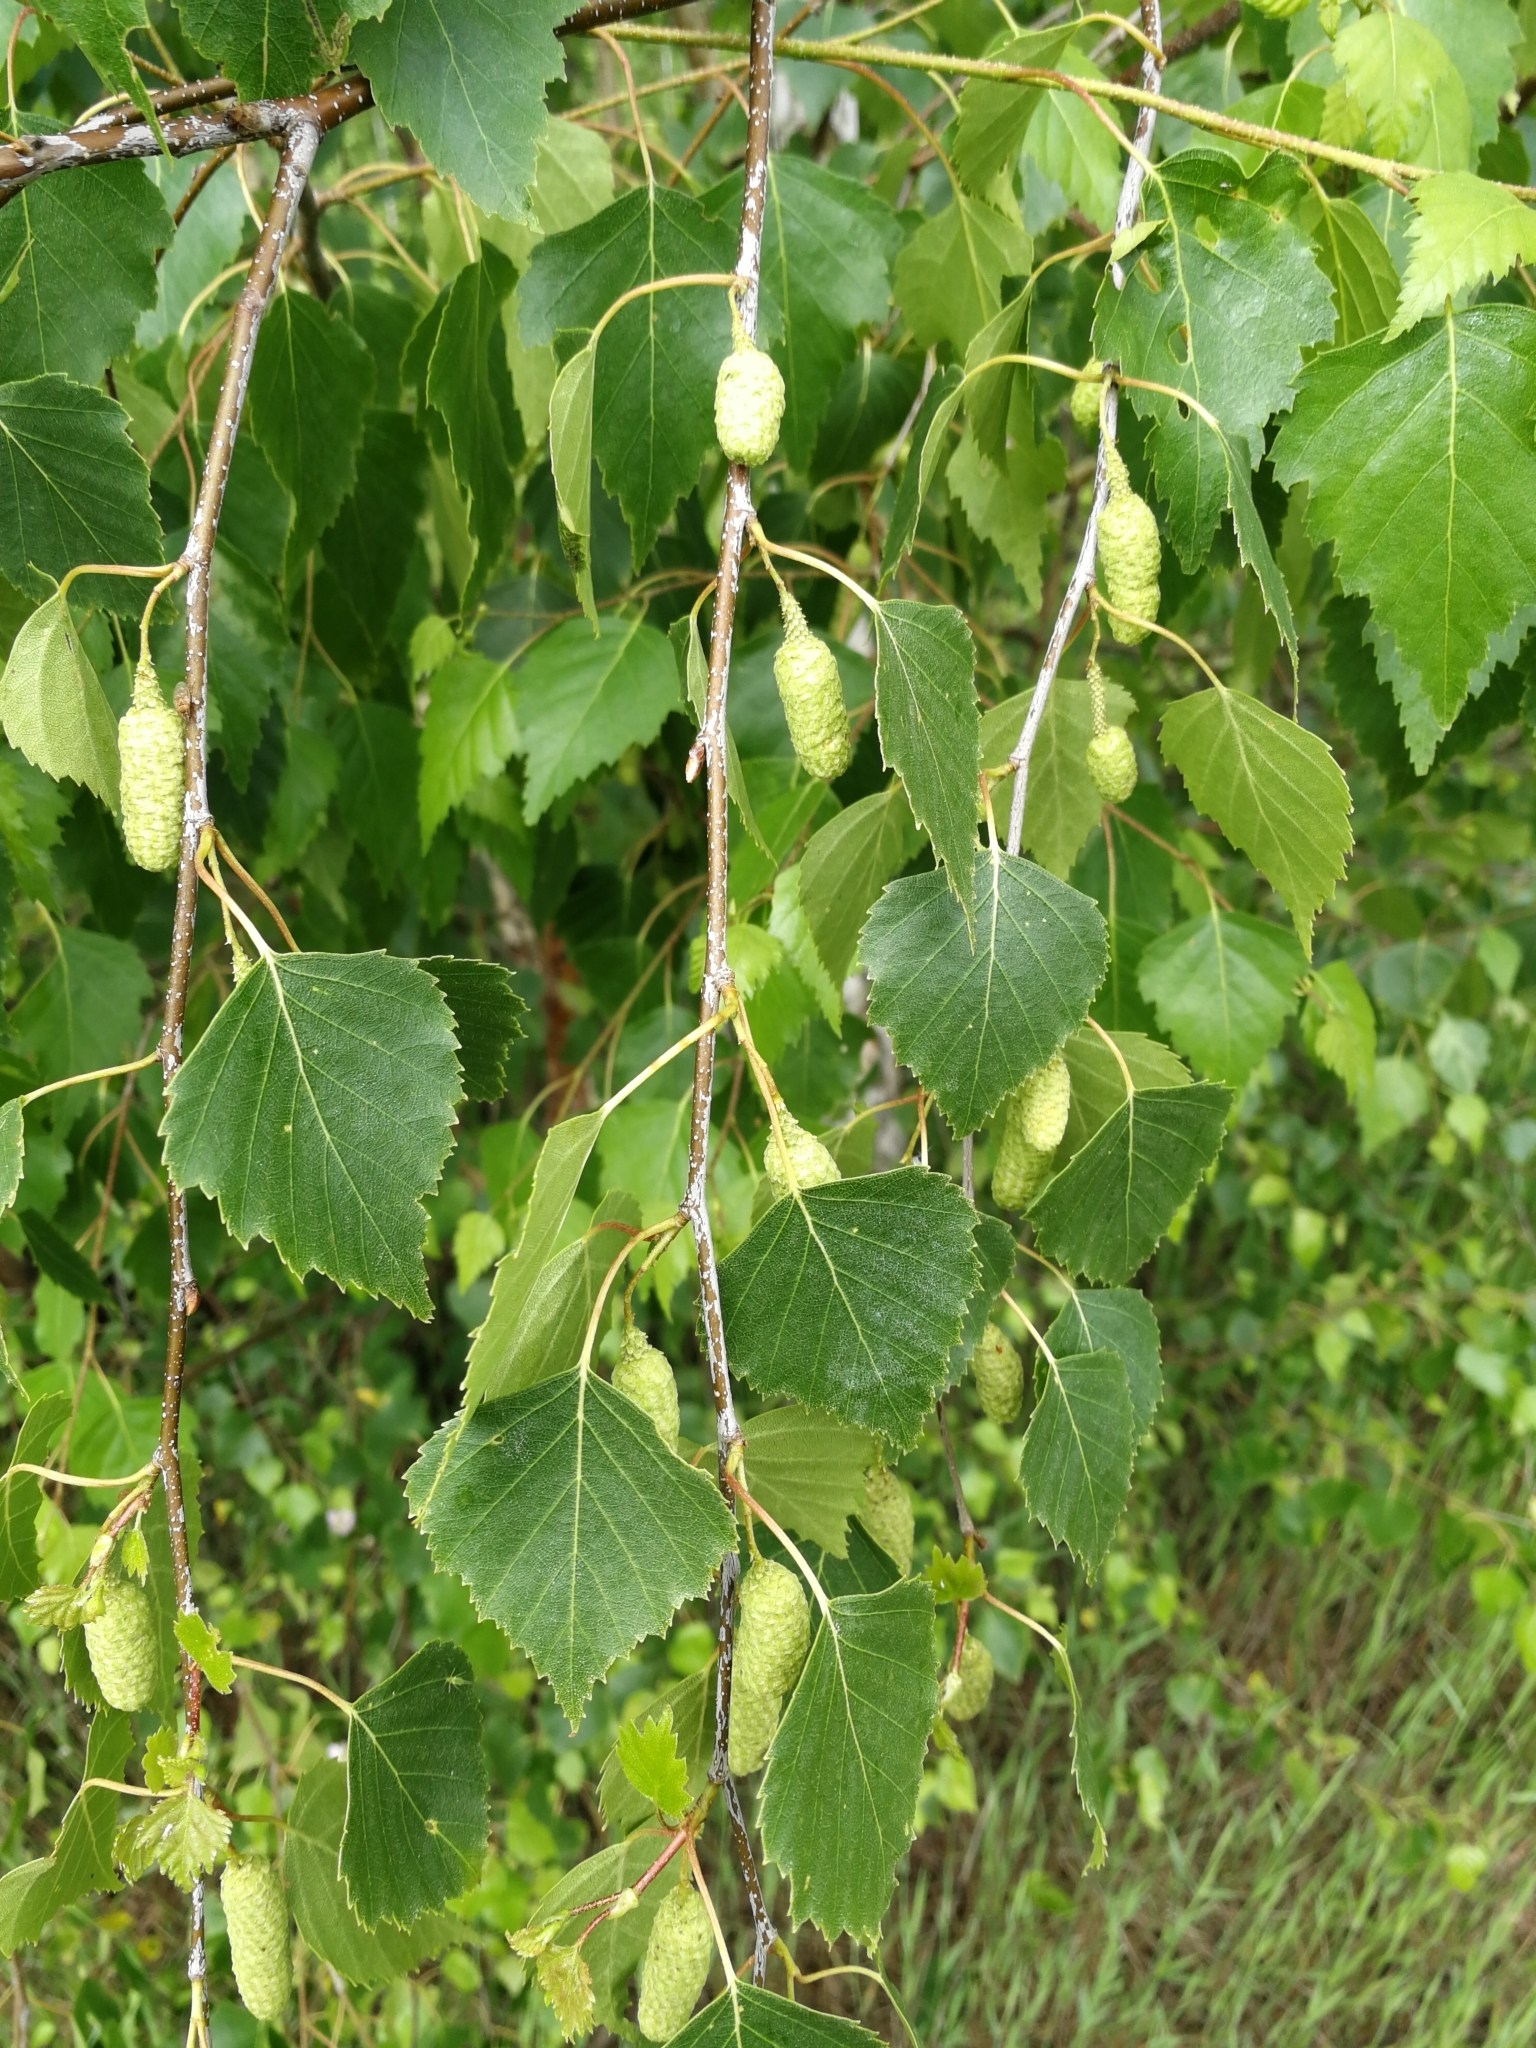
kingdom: Plantae
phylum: Tracheophyta
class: Magnoliopsida
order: Fagales
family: Betulaceae
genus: Betula
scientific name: Betula pendula
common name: Silver birch
